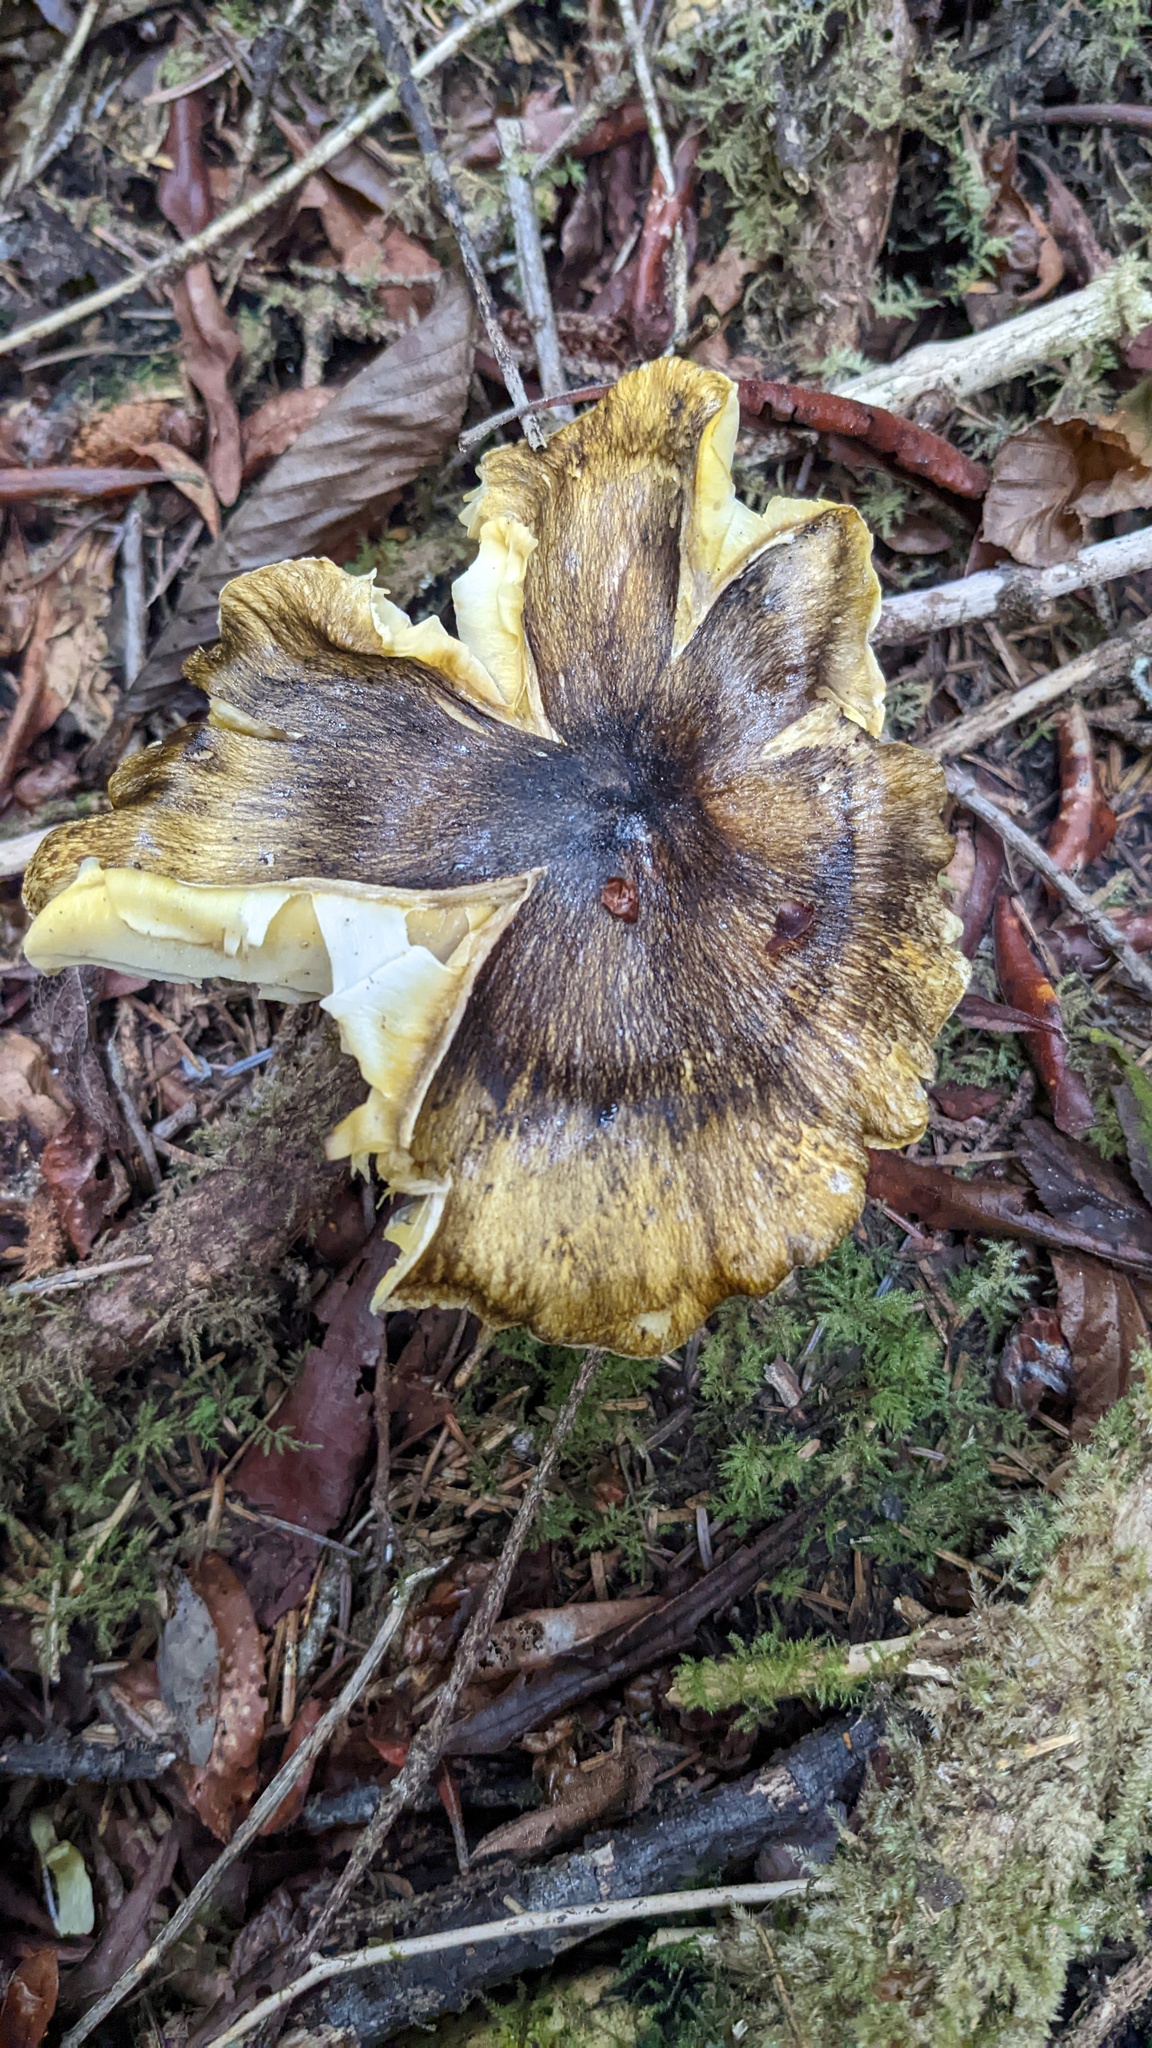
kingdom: Fungi
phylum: Basidiomycota
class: Agaricomycetes
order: Agaricales
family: Tricholomataceae
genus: Tricholoma
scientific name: Tricholoma subsejunctum
